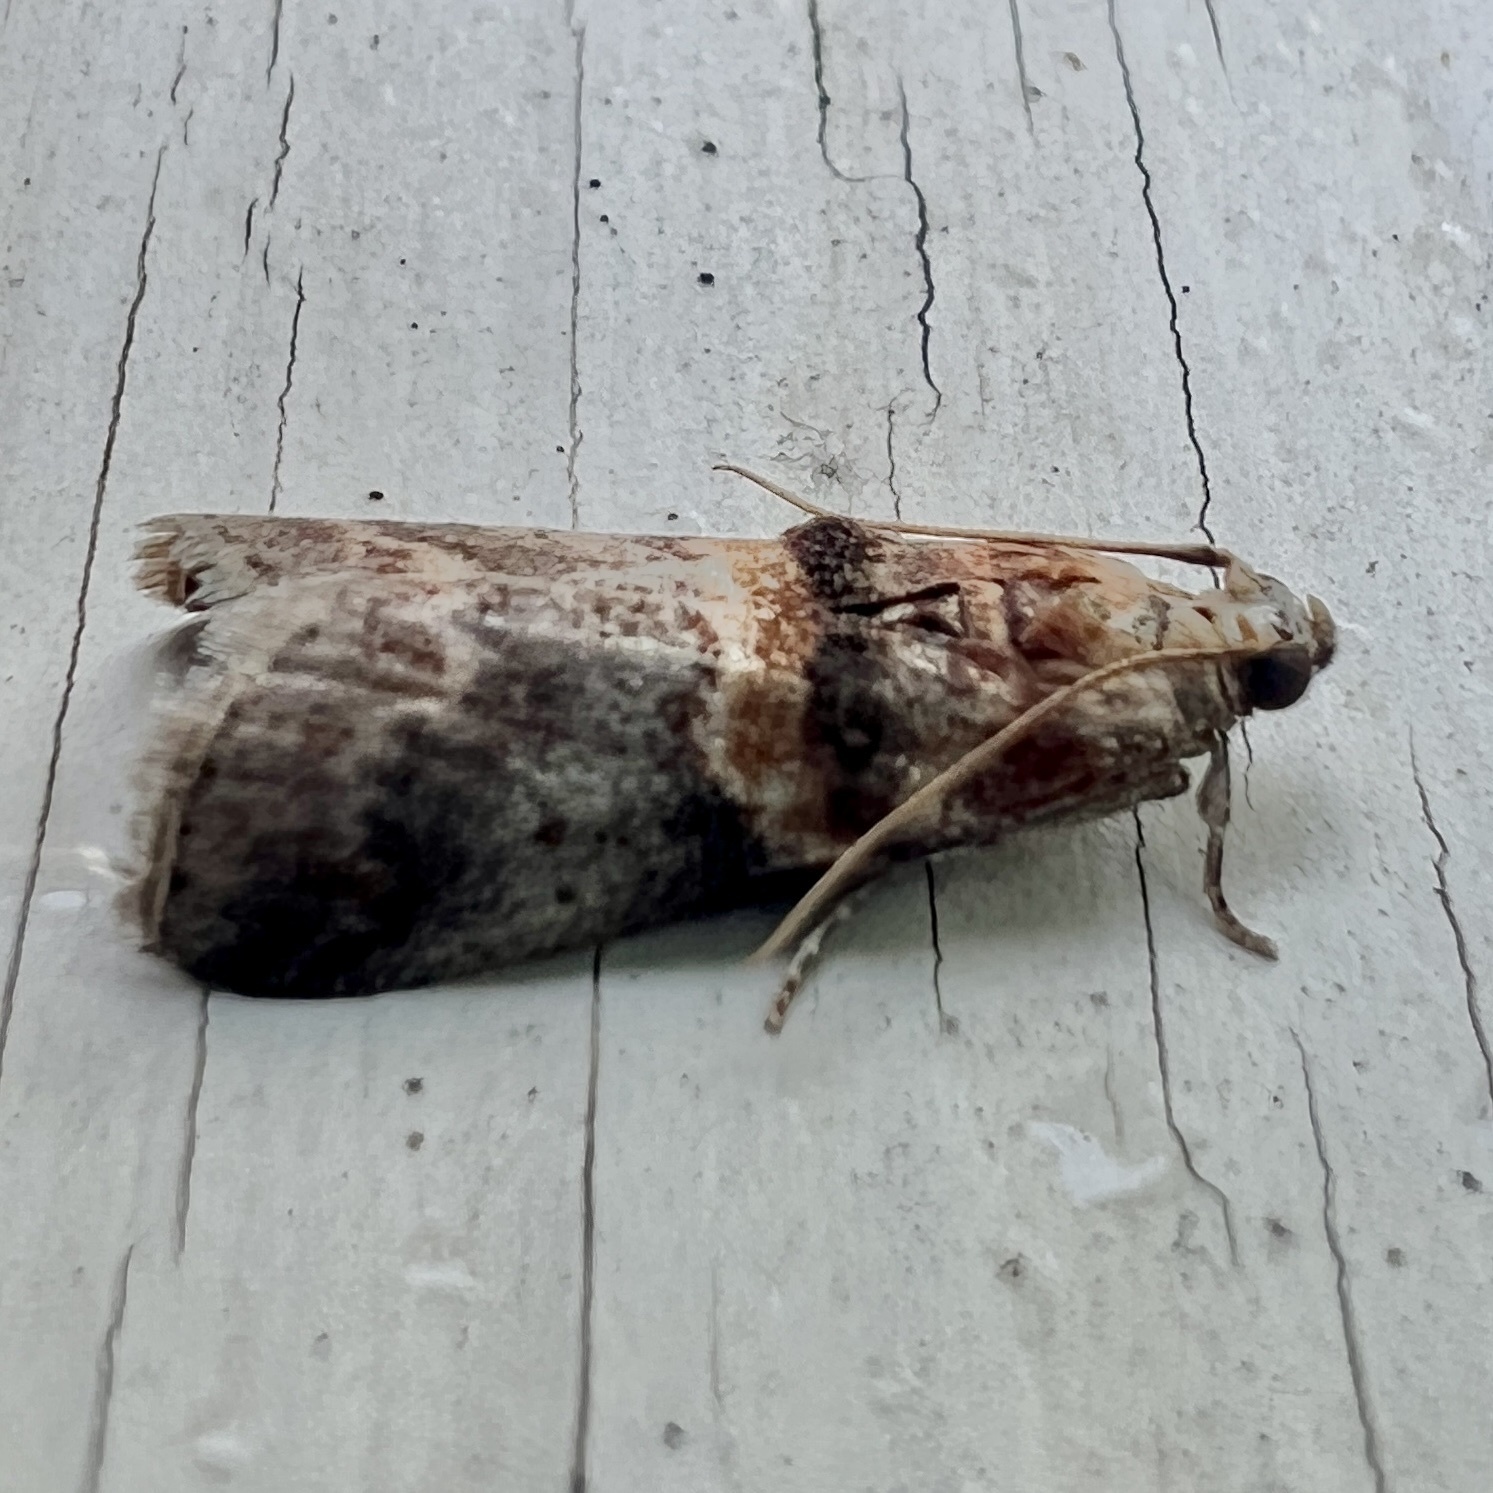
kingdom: Animalia
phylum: Arthropoda
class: Insecta
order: Lepidoptera
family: Pyralidae
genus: Acrobasis
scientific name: Acrobasis angusella
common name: Hickory leafstem borer moth
